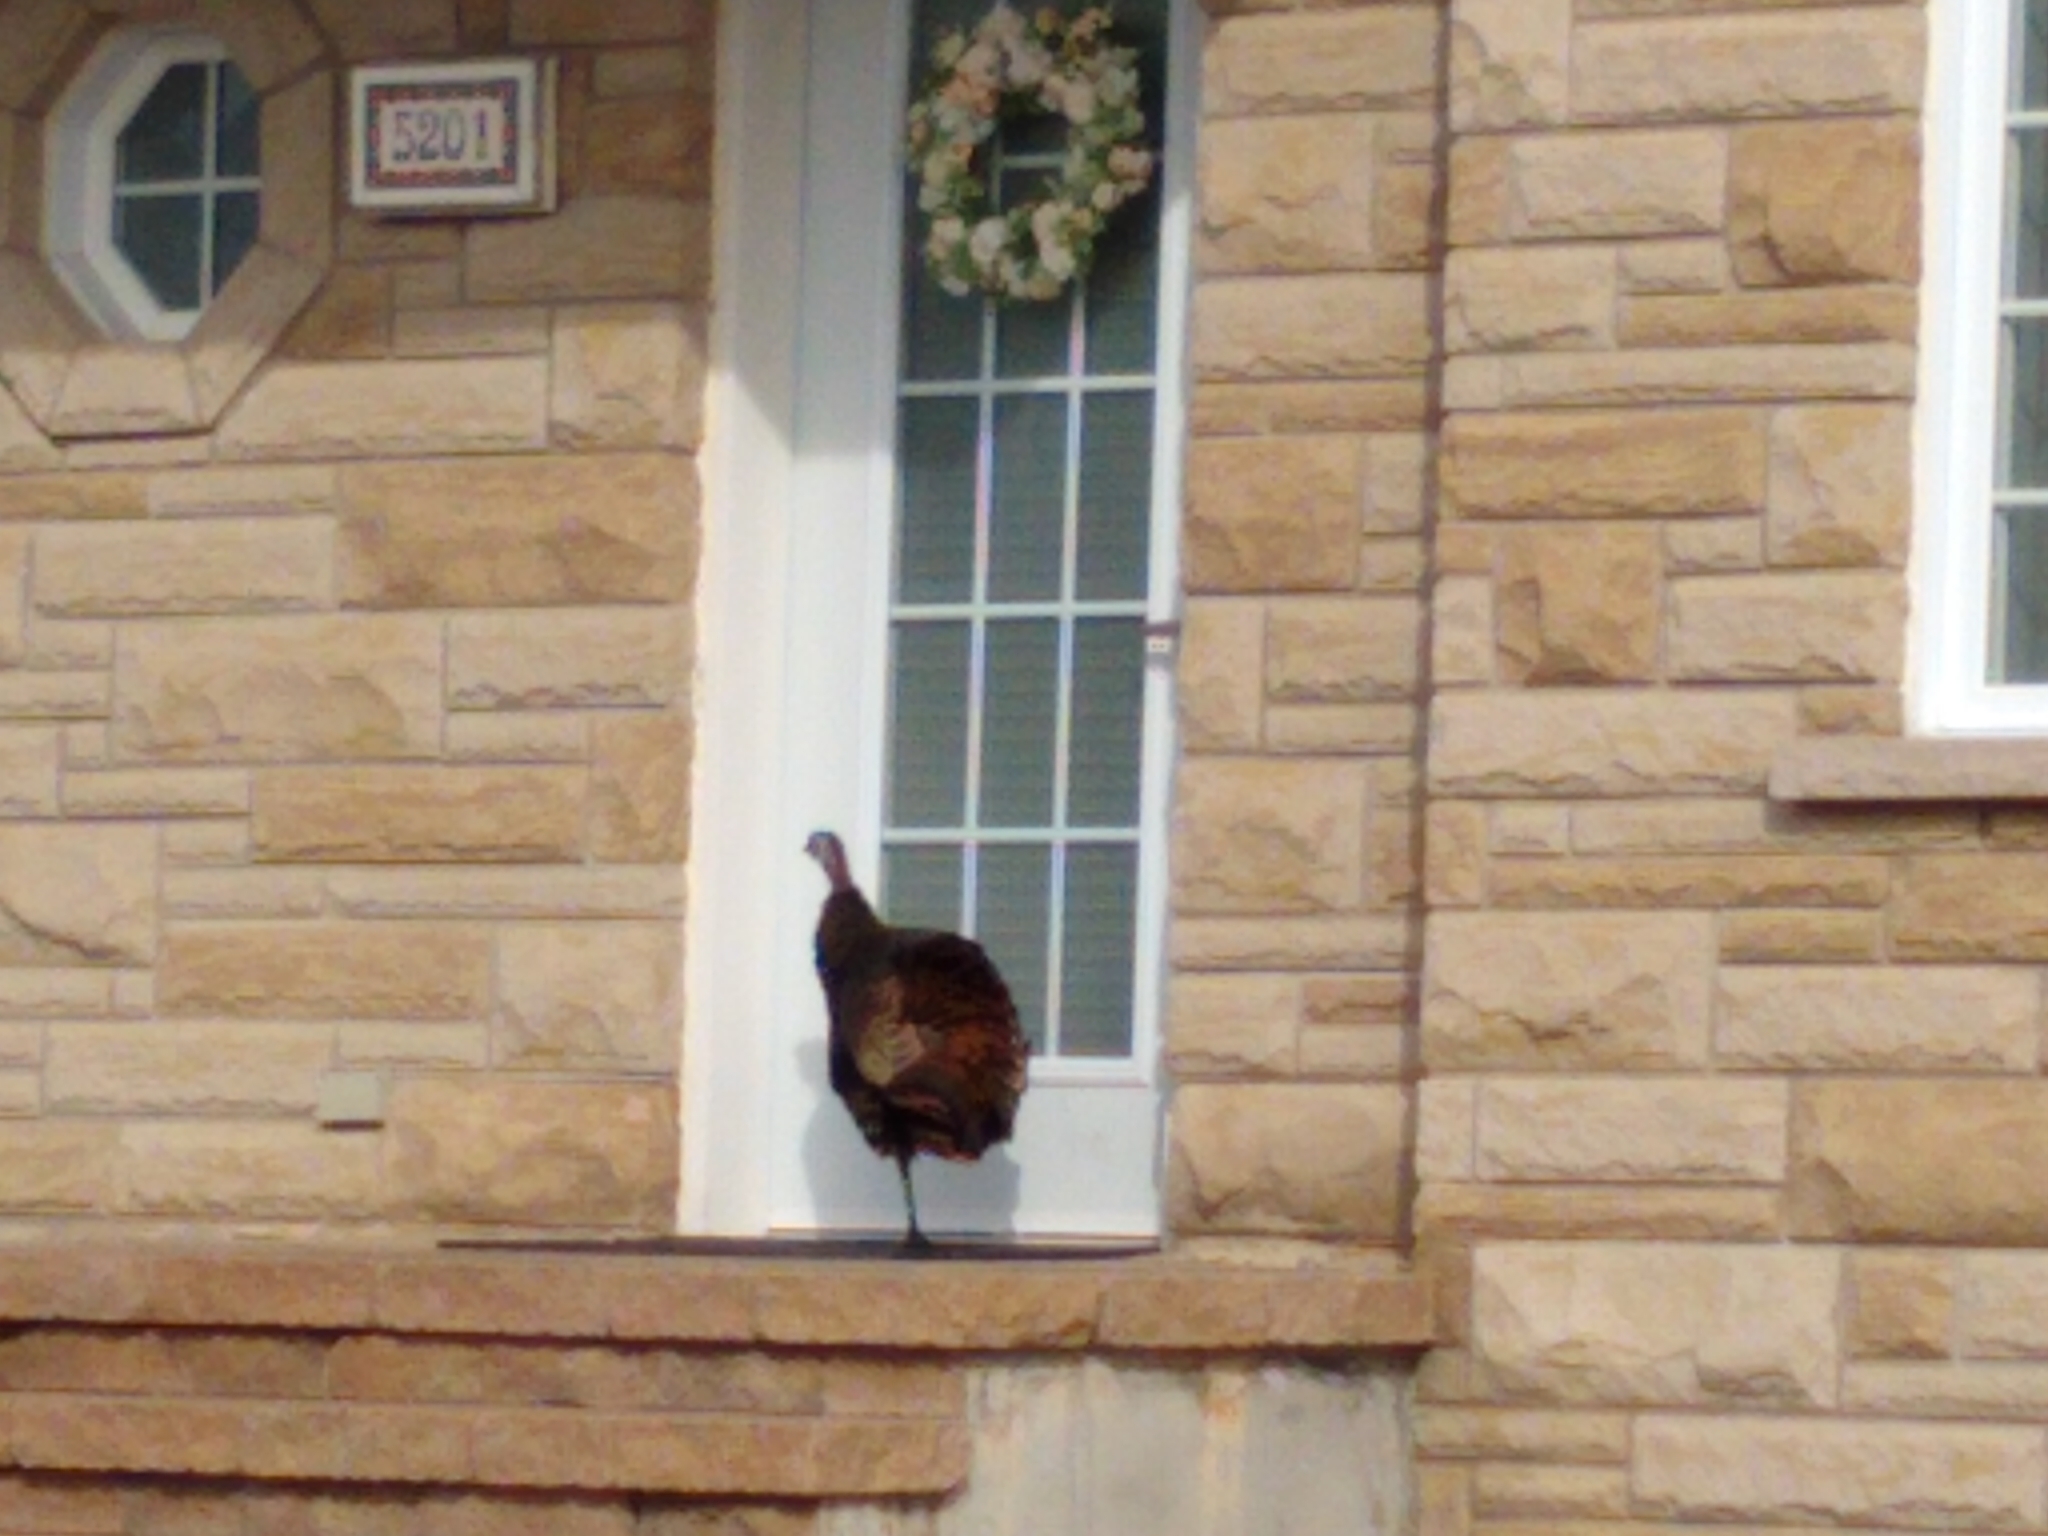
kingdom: Animalia
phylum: Chordata
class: Aves
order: Galliformes
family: Phasianidae
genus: Meleagris
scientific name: Meleagris gallopavo
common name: Wild turkey
